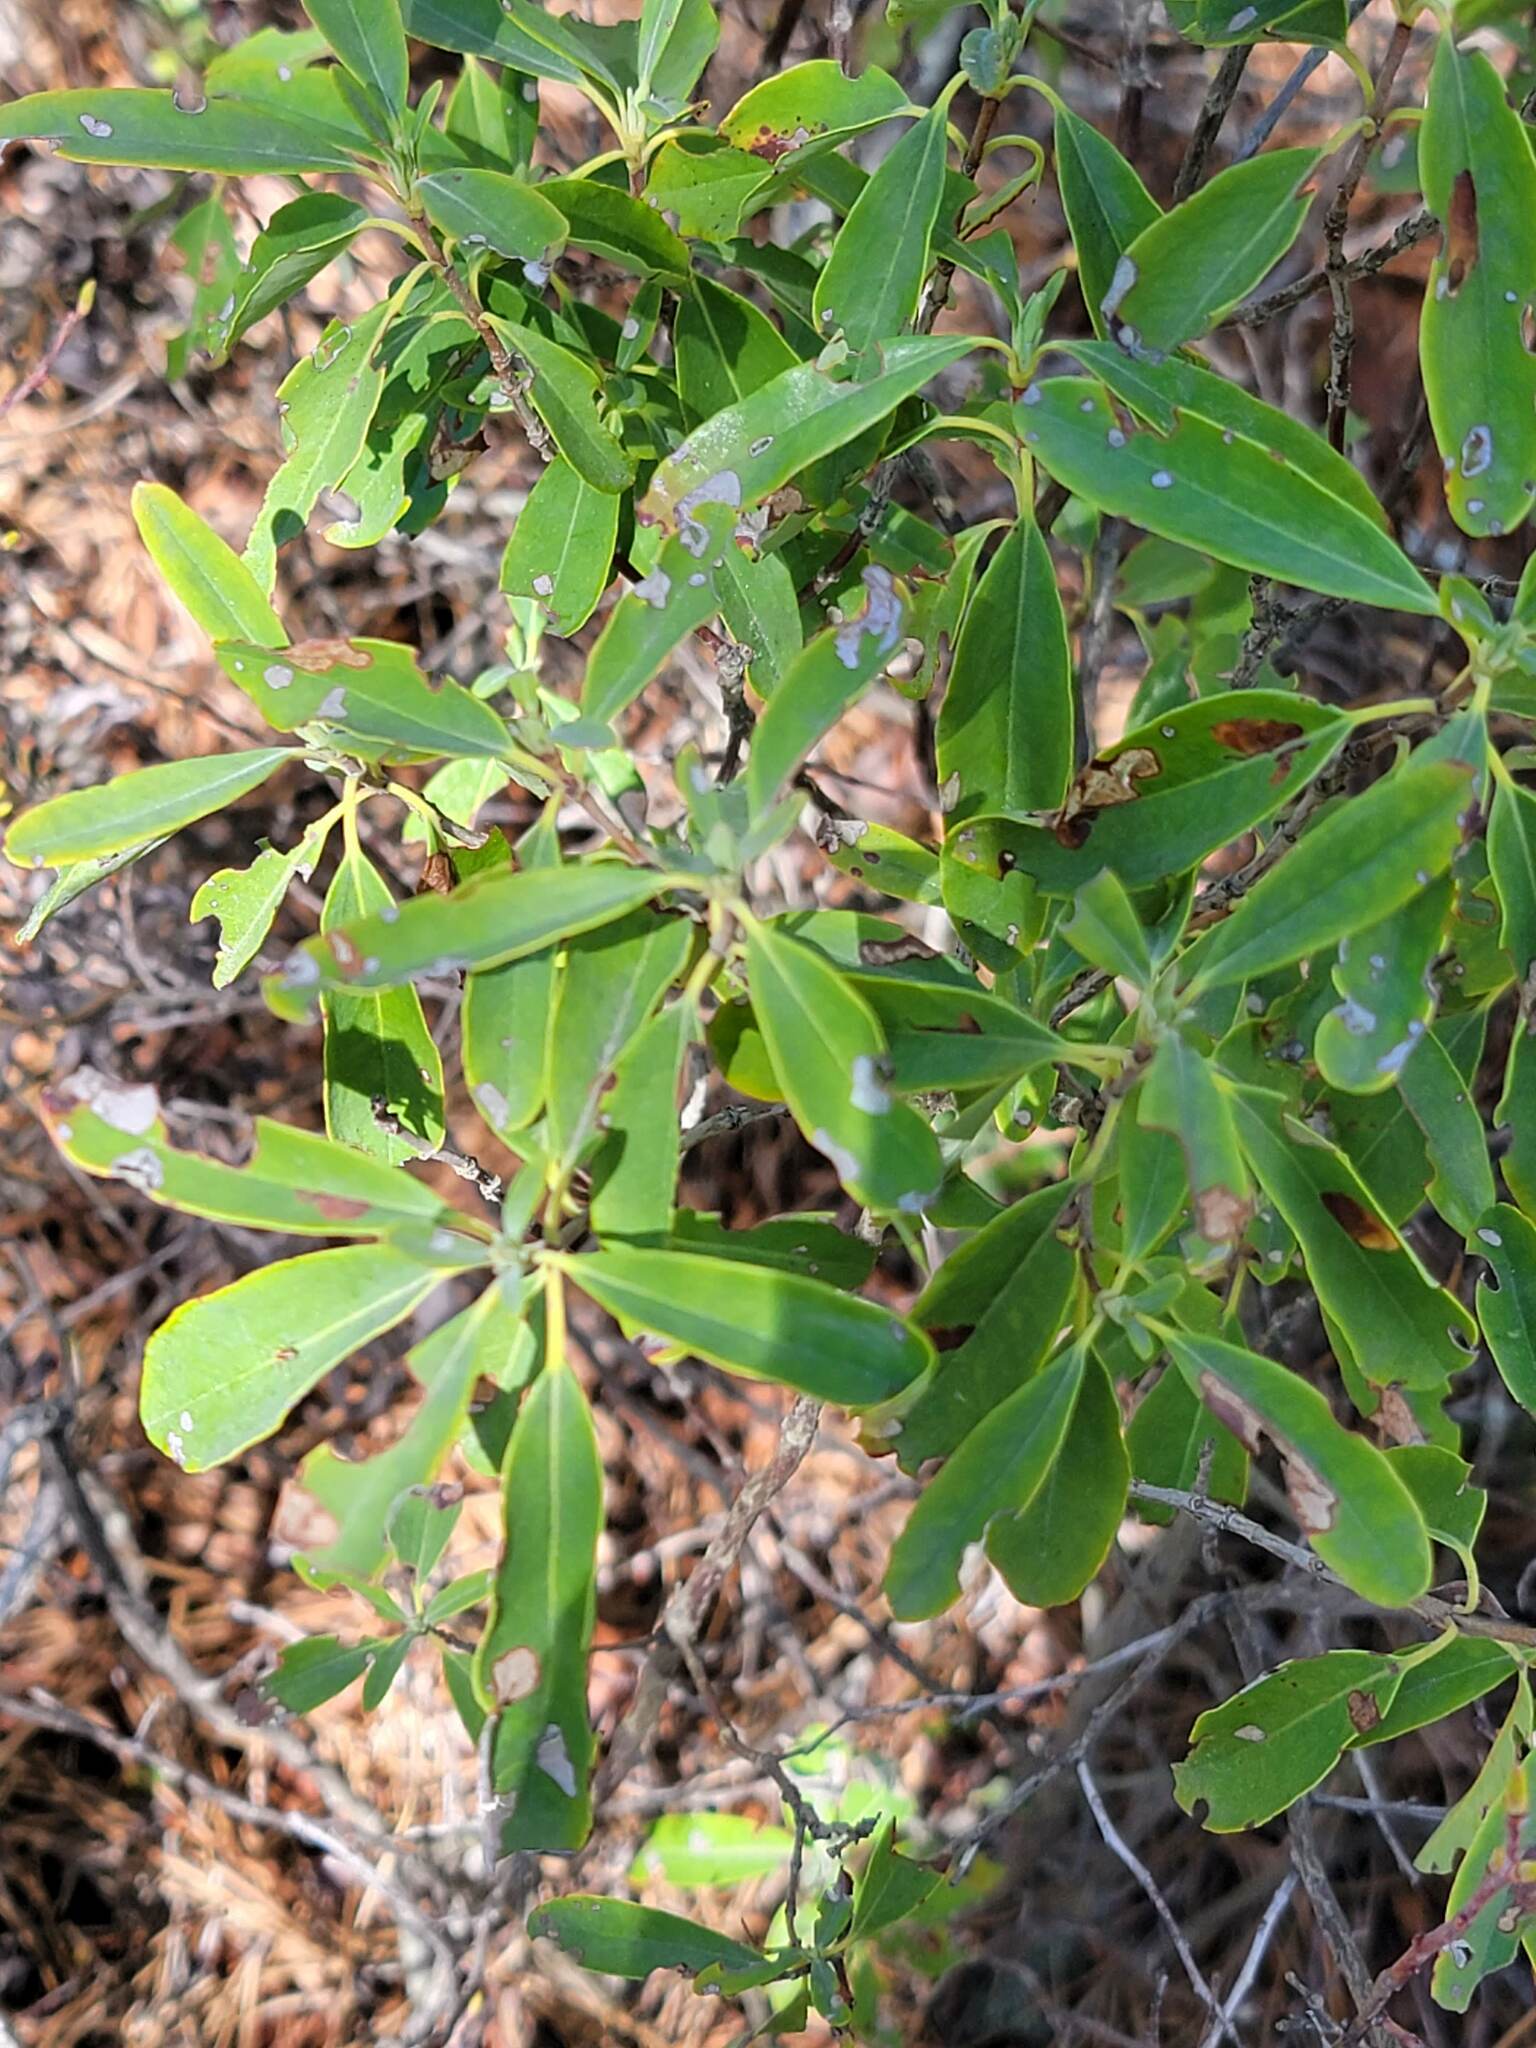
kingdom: Plantae
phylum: Tracheophyta
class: Magnoliopsida
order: Ericales
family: Ericaceae
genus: Kalmia
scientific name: Kalmia angustifolia
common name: Sheep-laurel
